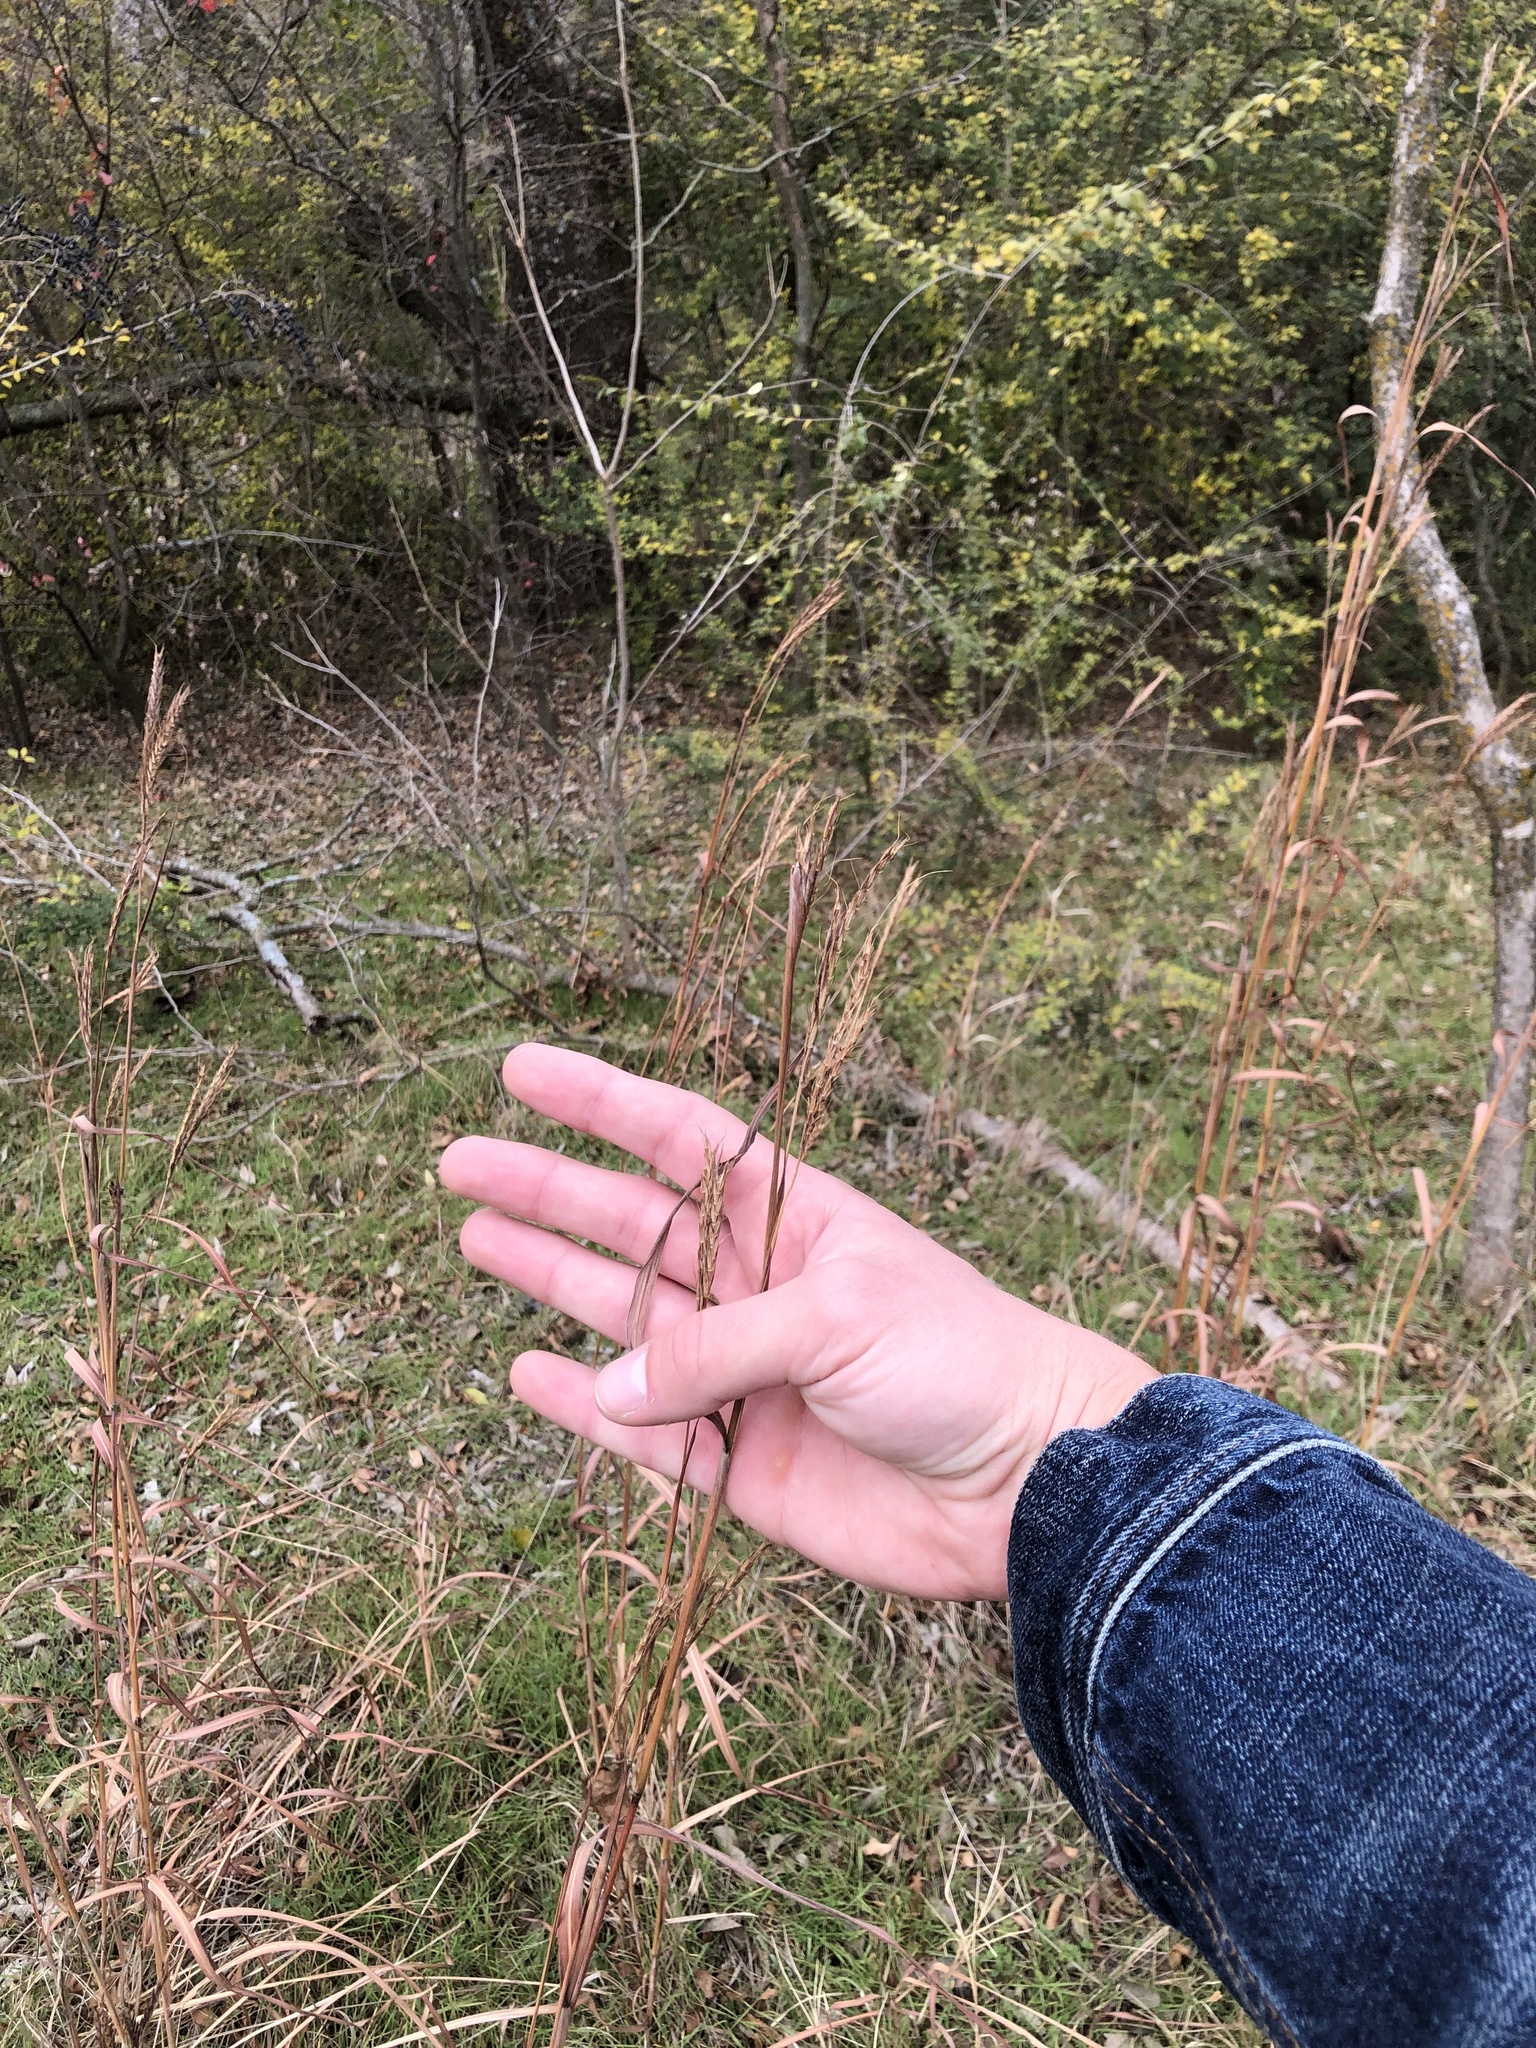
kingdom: Plantae
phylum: Tracheophyta
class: Liliopsida
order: Poales
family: Poaceae
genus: Andropogon
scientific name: Andropogon gerardi
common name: Big bluestem
